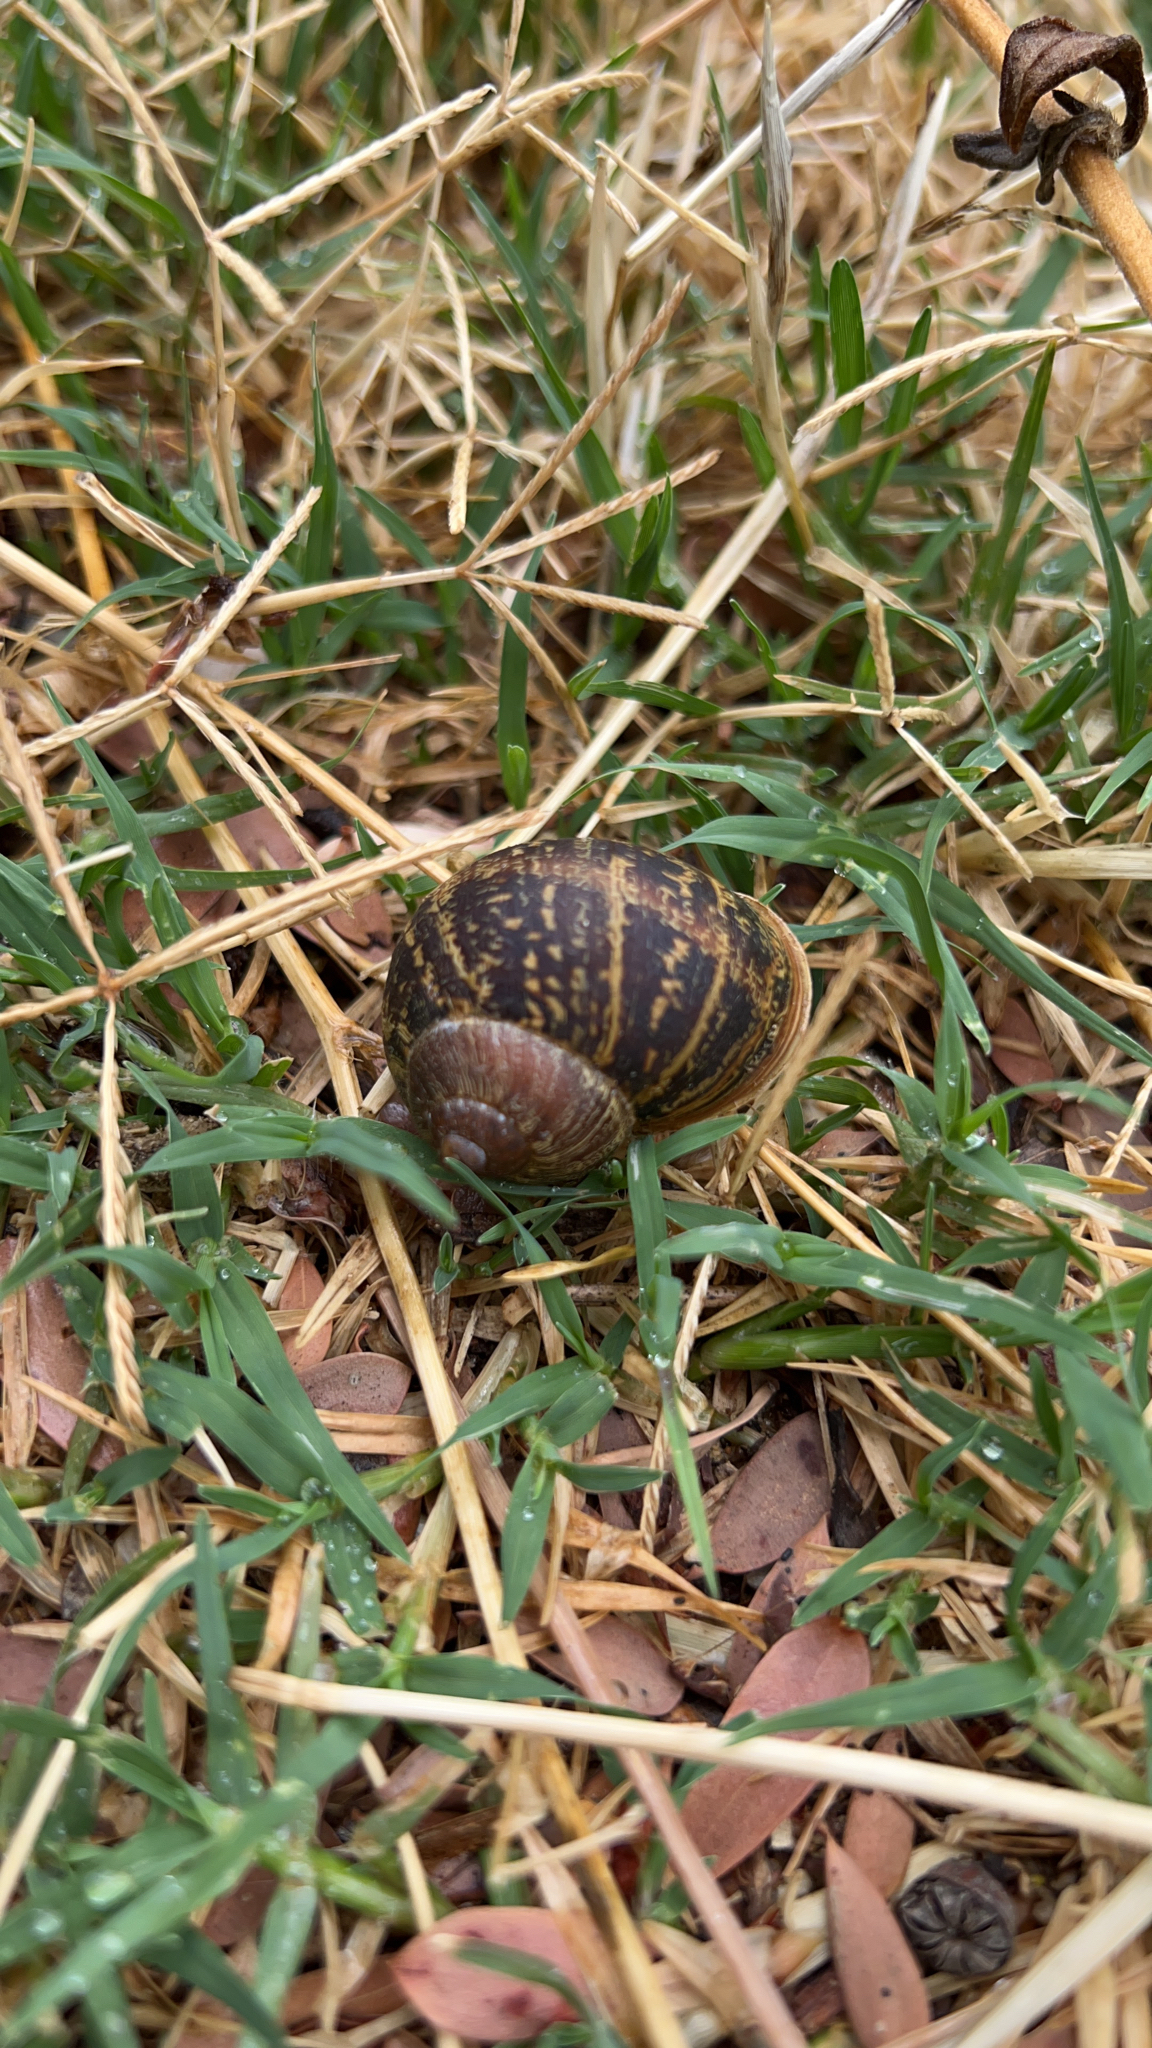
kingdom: Animalia
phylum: Mollusca
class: Gastropoda
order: Stylommatophora
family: Helicidae
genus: Cornu
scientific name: Cornu aspersum
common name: Brown garden snail
